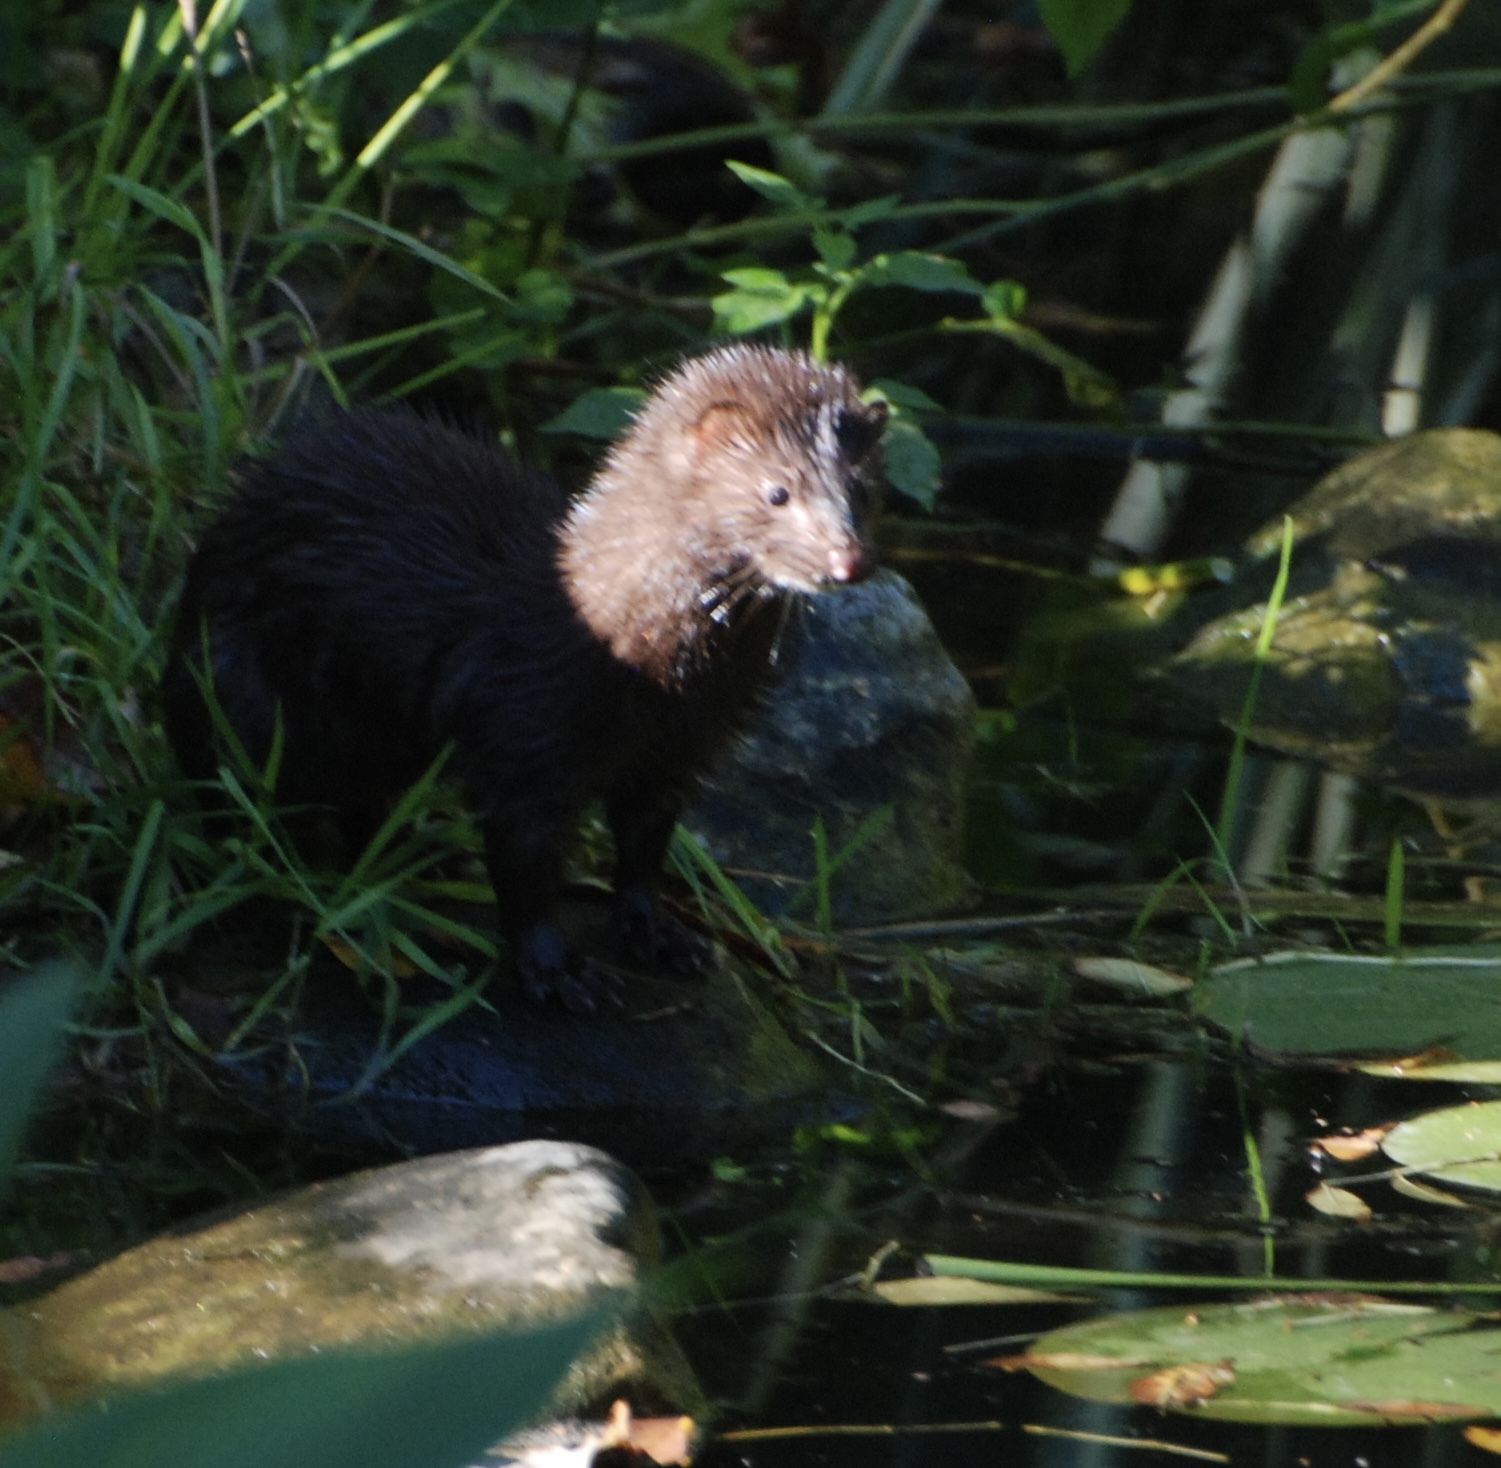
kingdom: Animalia
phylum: Chordata
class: Mammalia
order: Carnivora
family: Mustelidae
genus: Mustela
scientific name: Mustela
